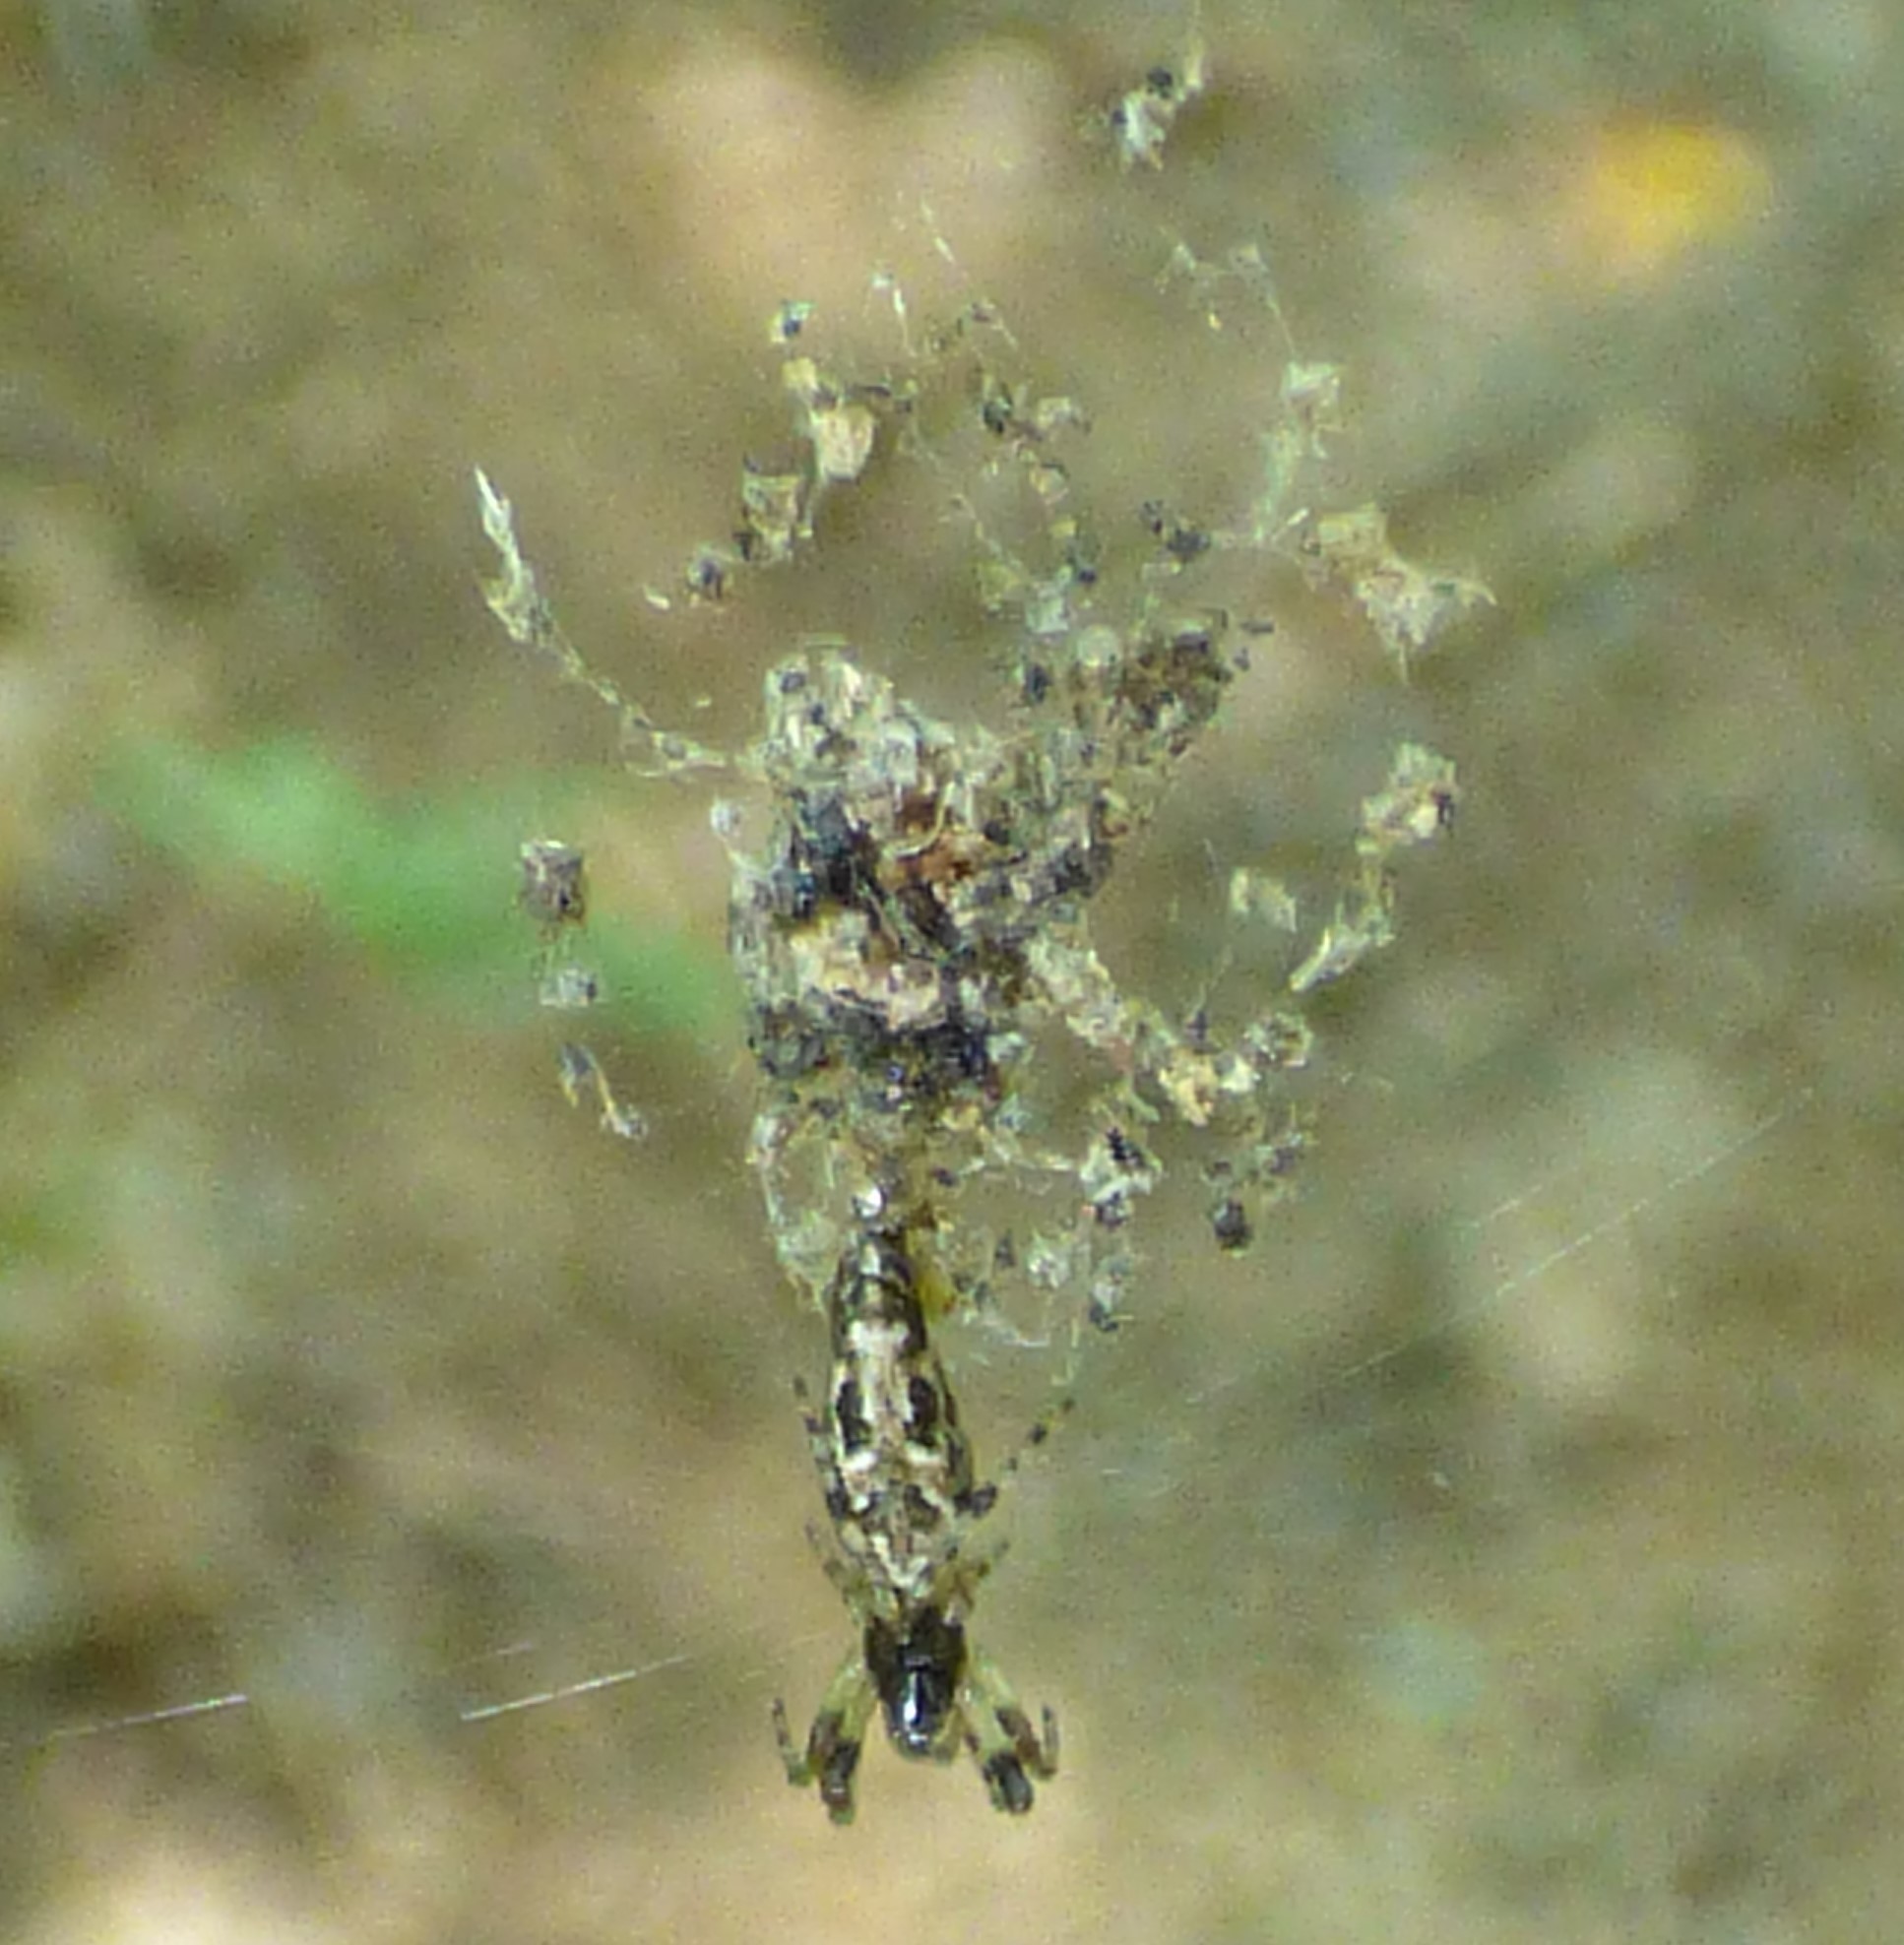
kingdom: Animalia
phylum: Arthropoda
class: Arachnida
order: Araneae
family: Araneidae
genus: Cyclosa
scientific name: Cyclosa caroli
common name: Orb weavers
